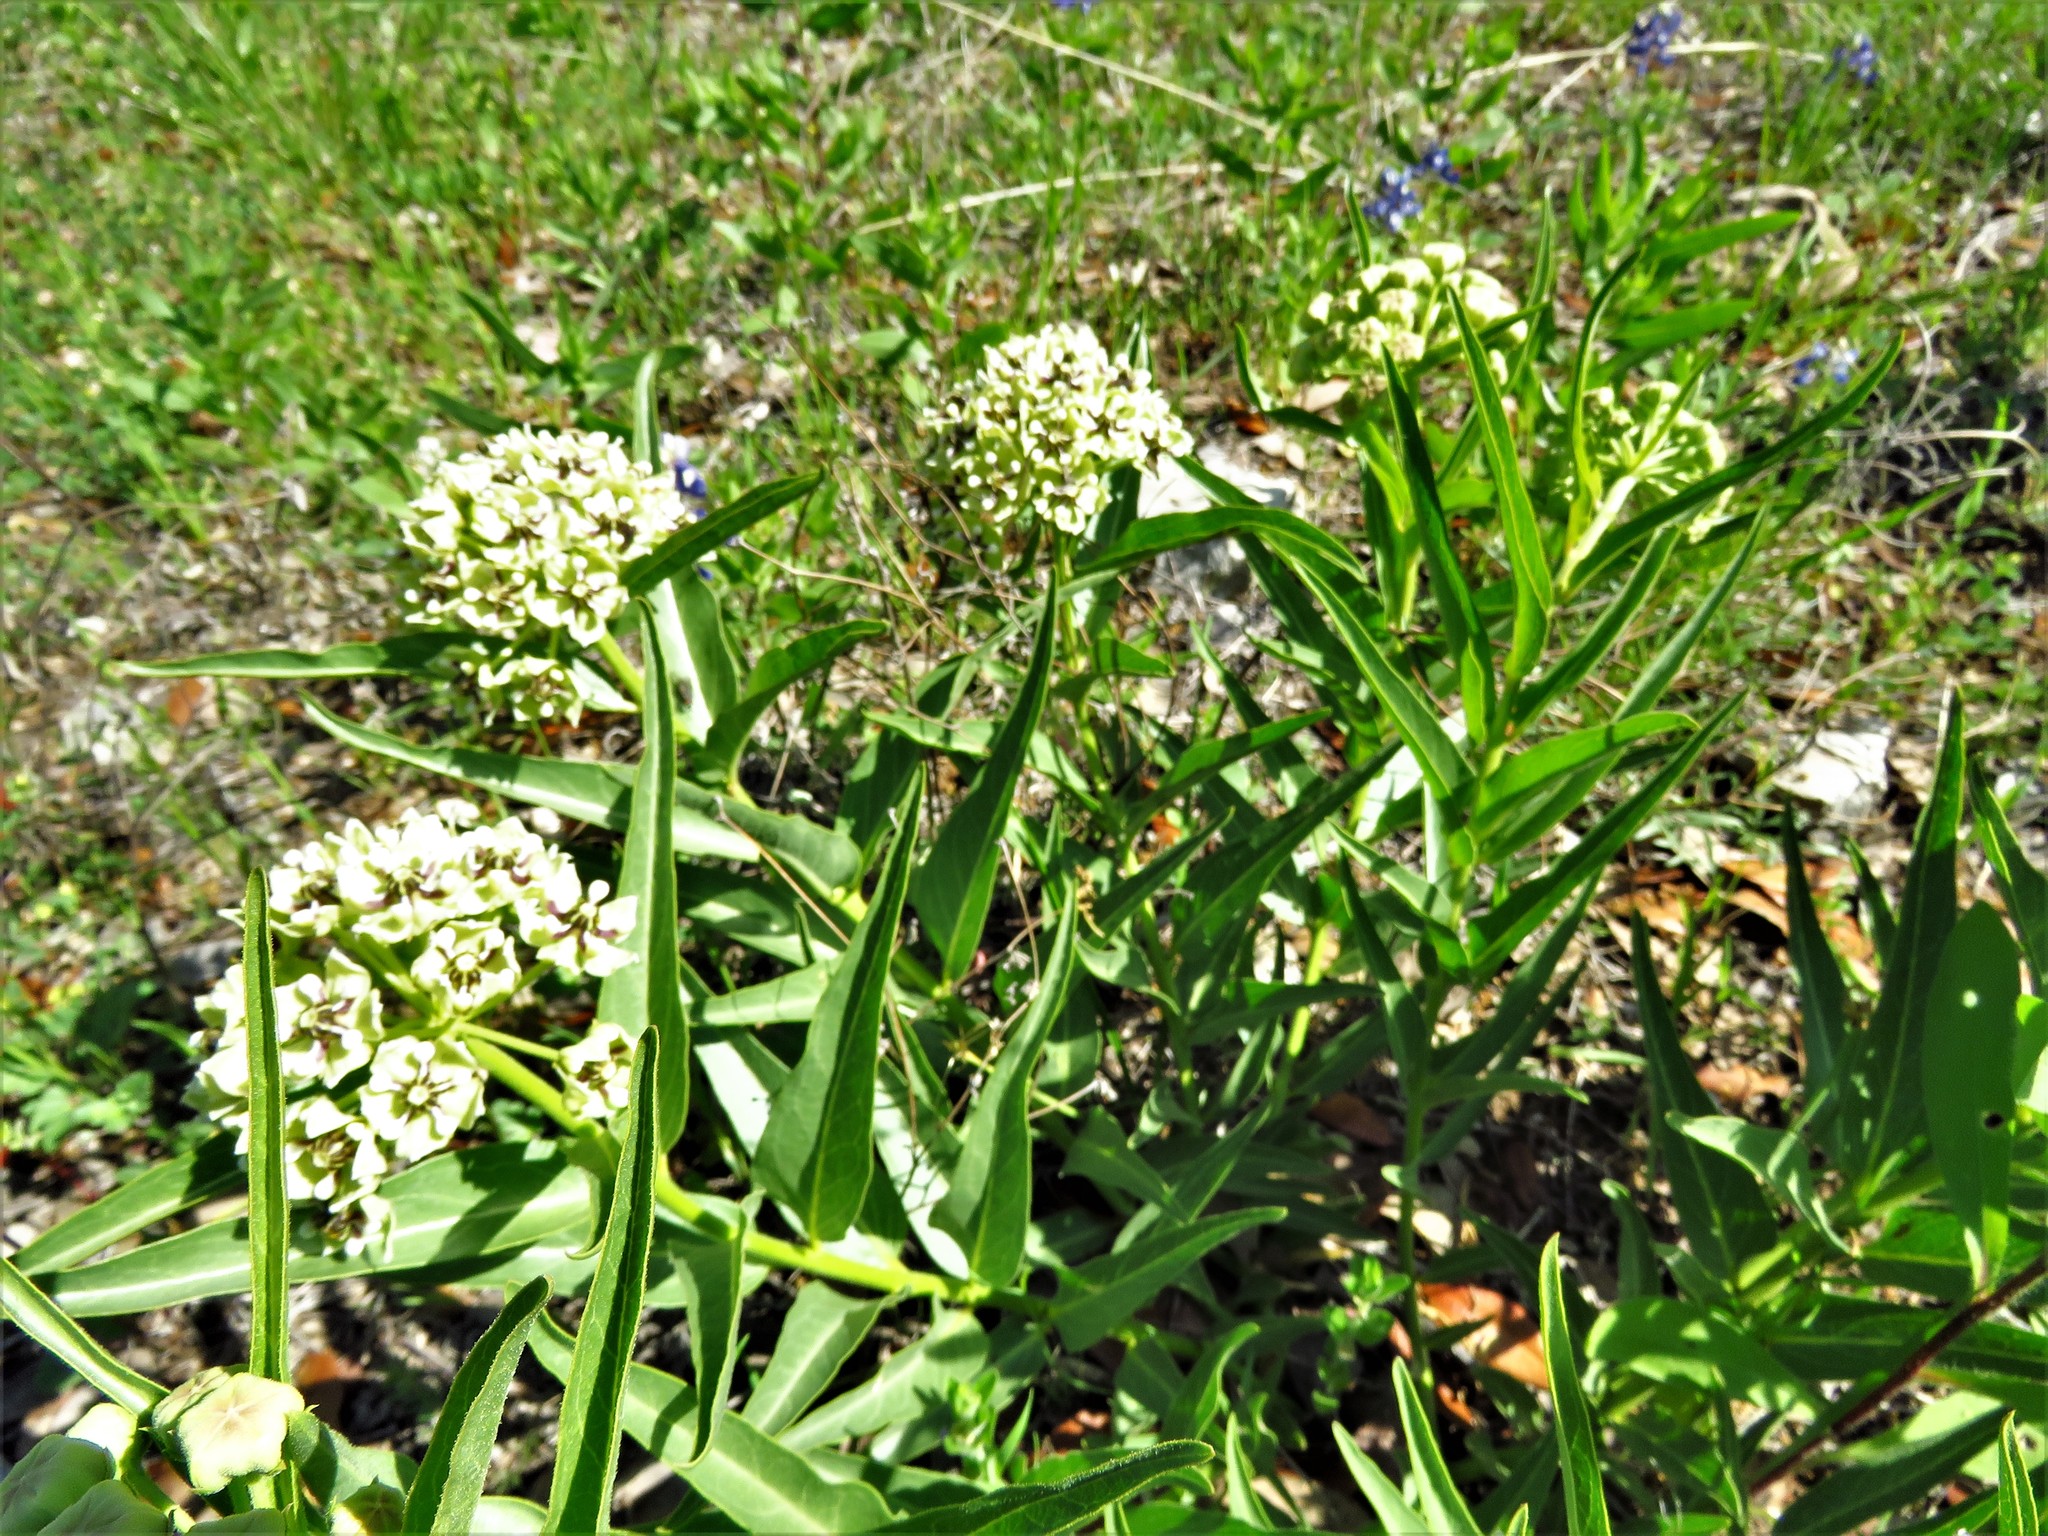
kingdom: Plantae
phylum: Tracheophyta
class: Magnoliopsida
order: Gentianales
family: Apocynaceae
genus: Asclepias
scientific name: Asclepias asperula
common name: Antelope horns
